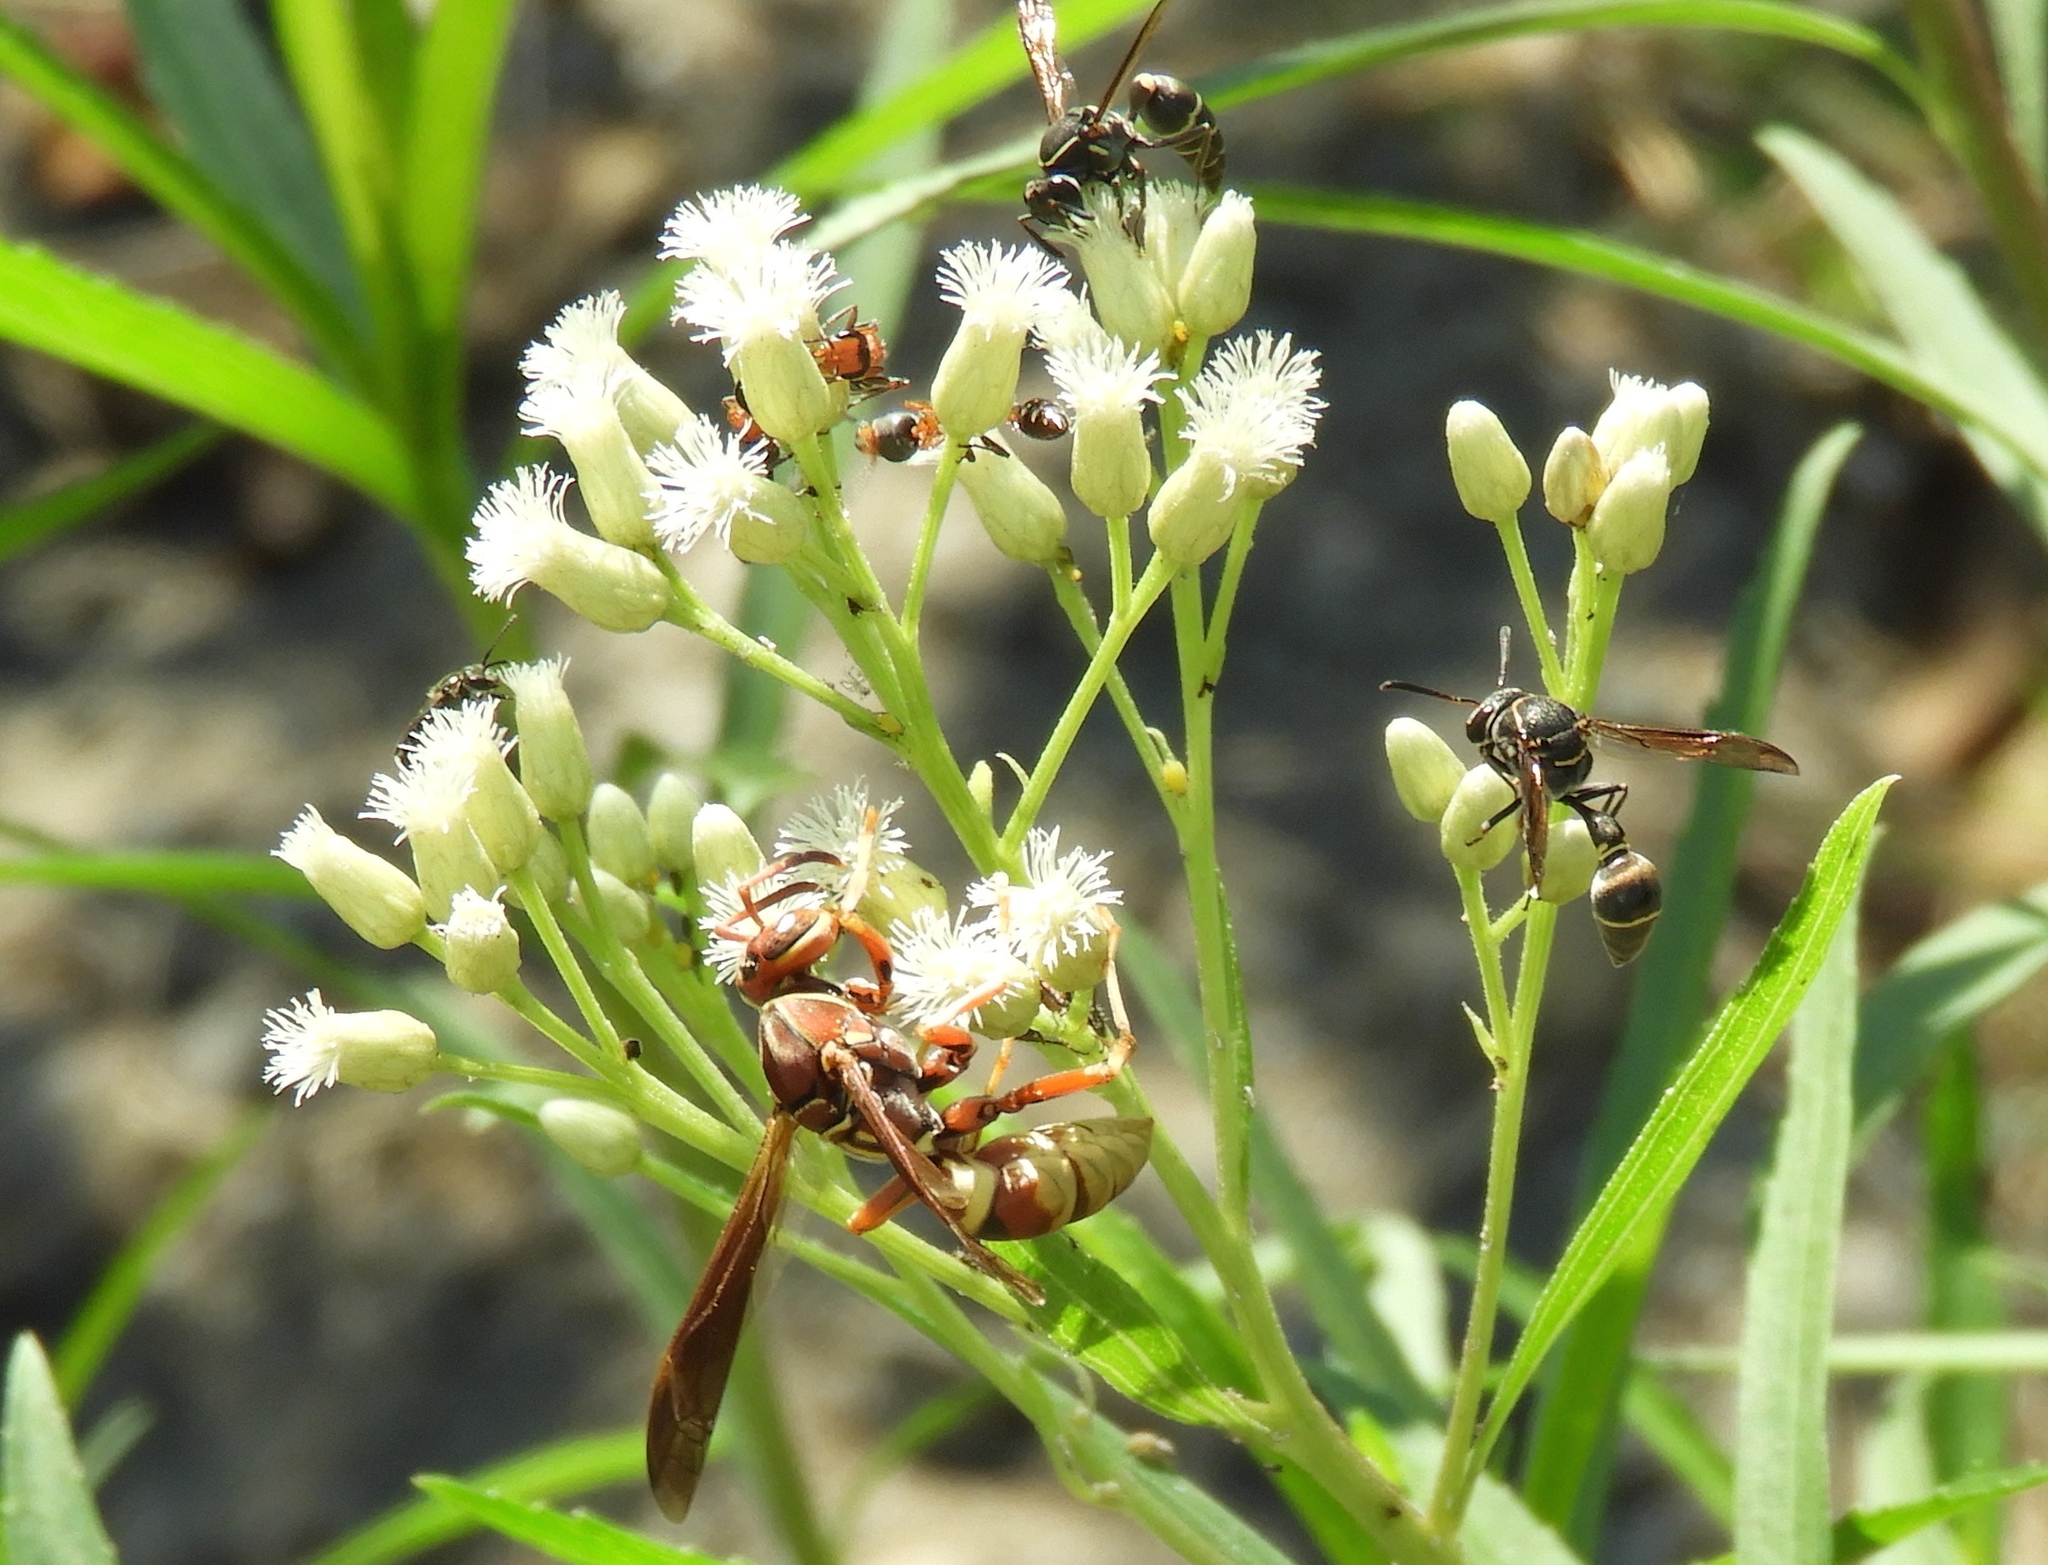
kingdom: Plantae
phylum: Tracheophyta
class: Magnoliopsida
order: Asterales
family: Asteraceae
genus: Baccharis
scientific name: Baccharis salicifolia
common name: Sticky baccharis
